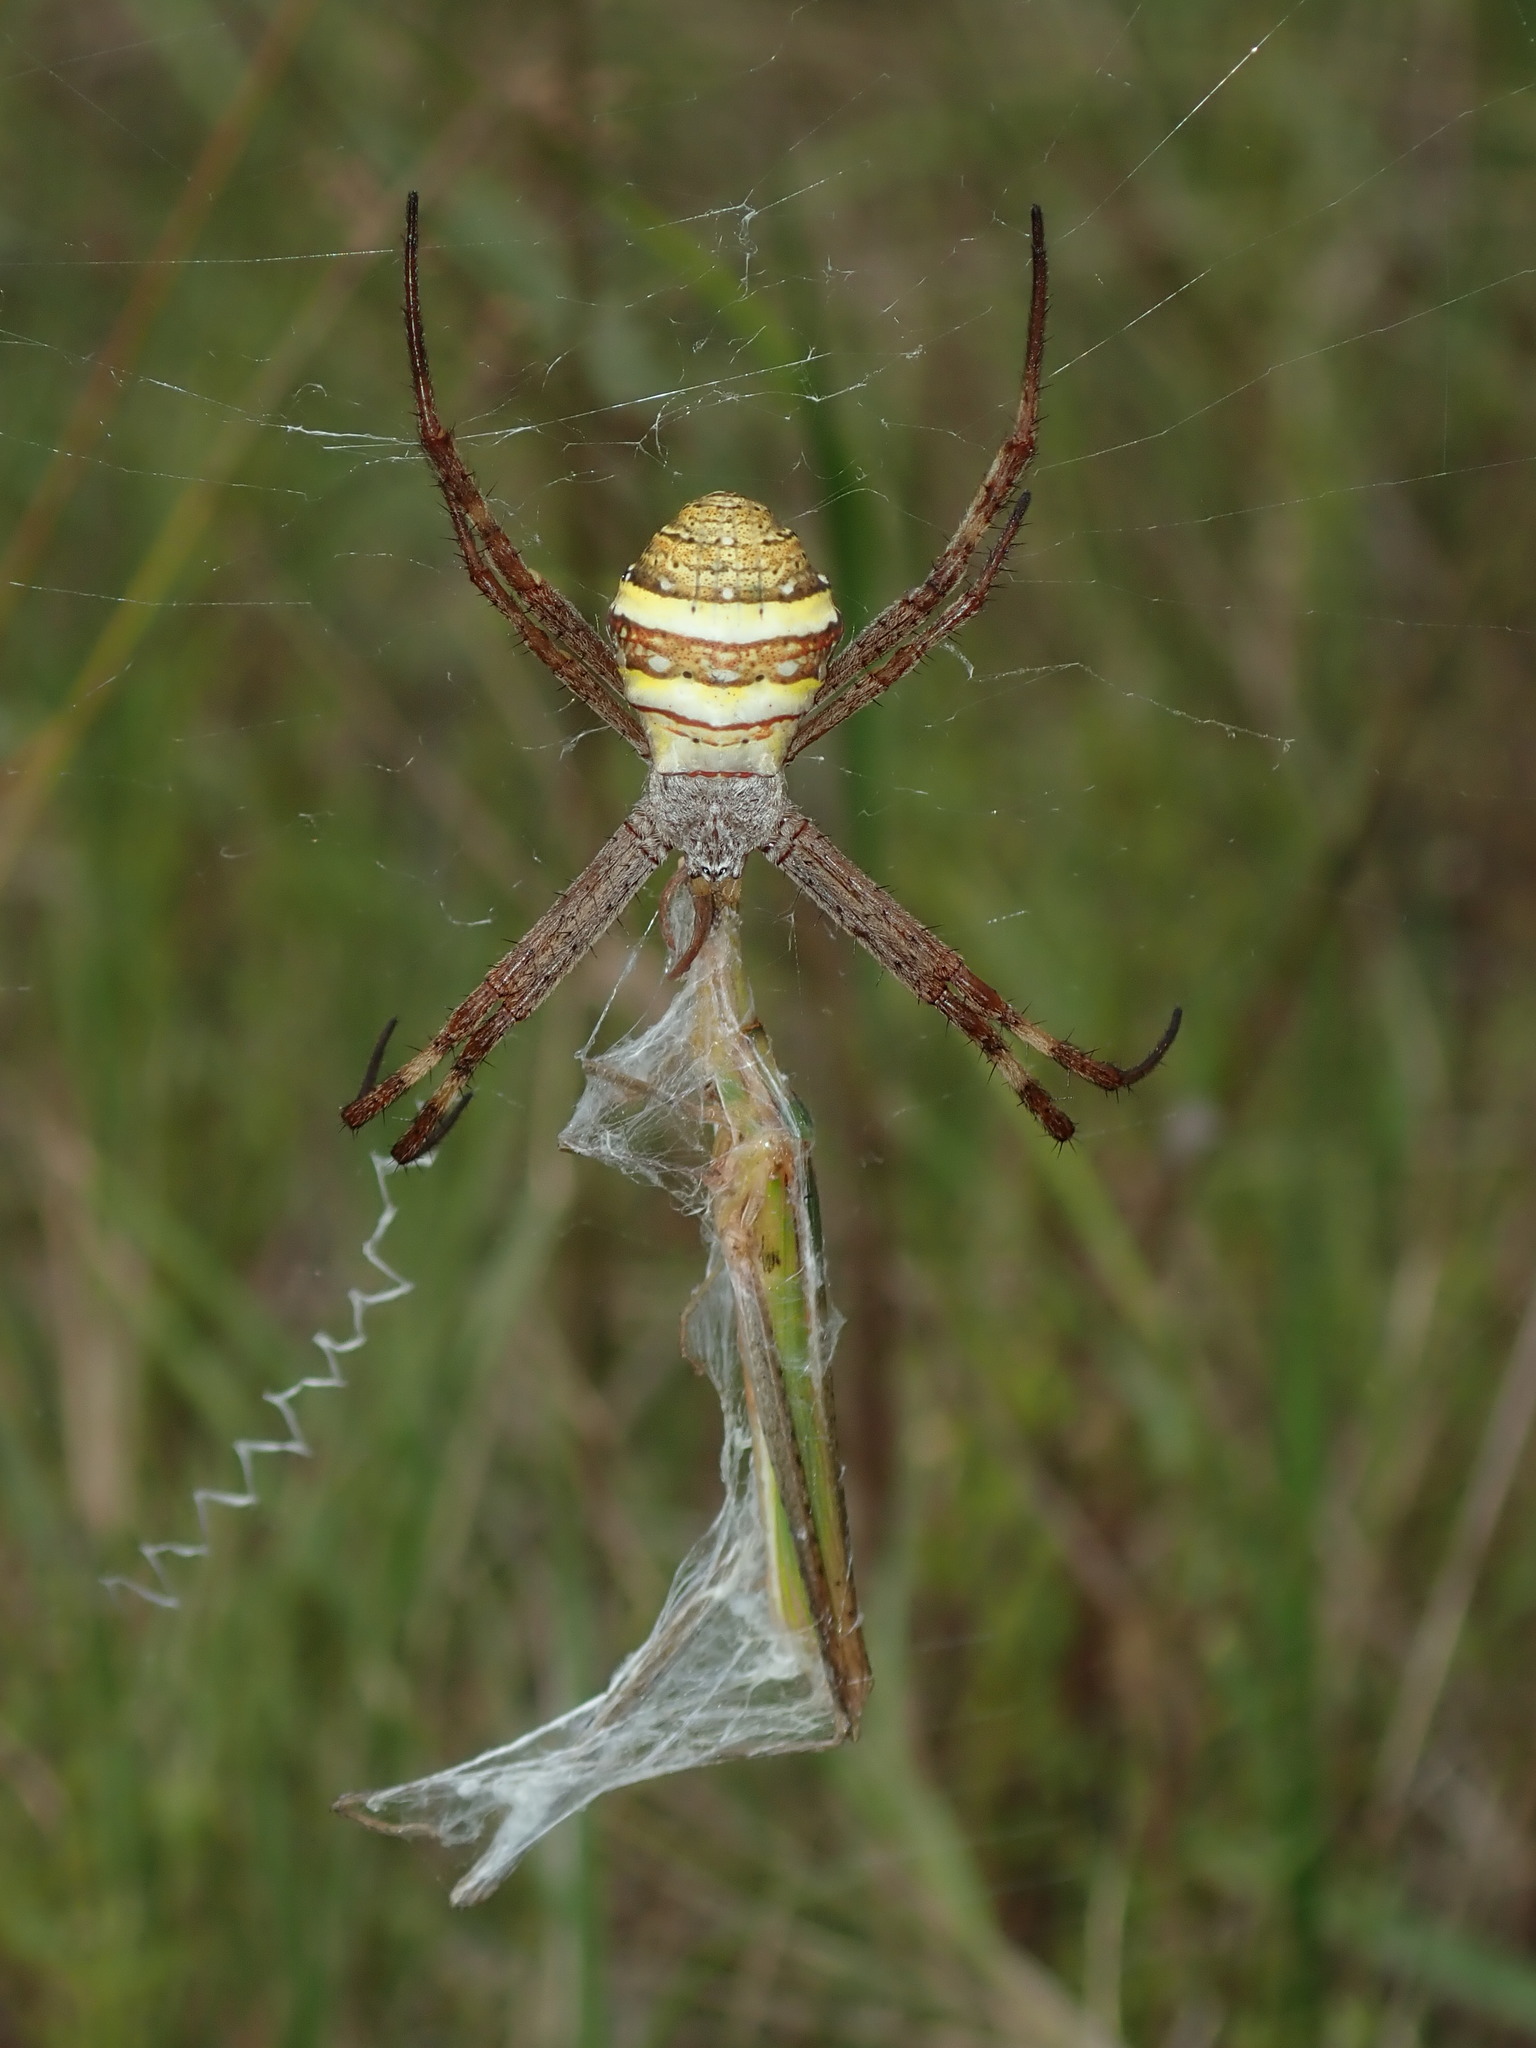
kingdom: Animalia
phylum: Arthropoda
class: Insecta
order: Orthoptera
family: Acrididae
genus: Acrida
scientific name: Acrida conica
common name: Giant green slantface
